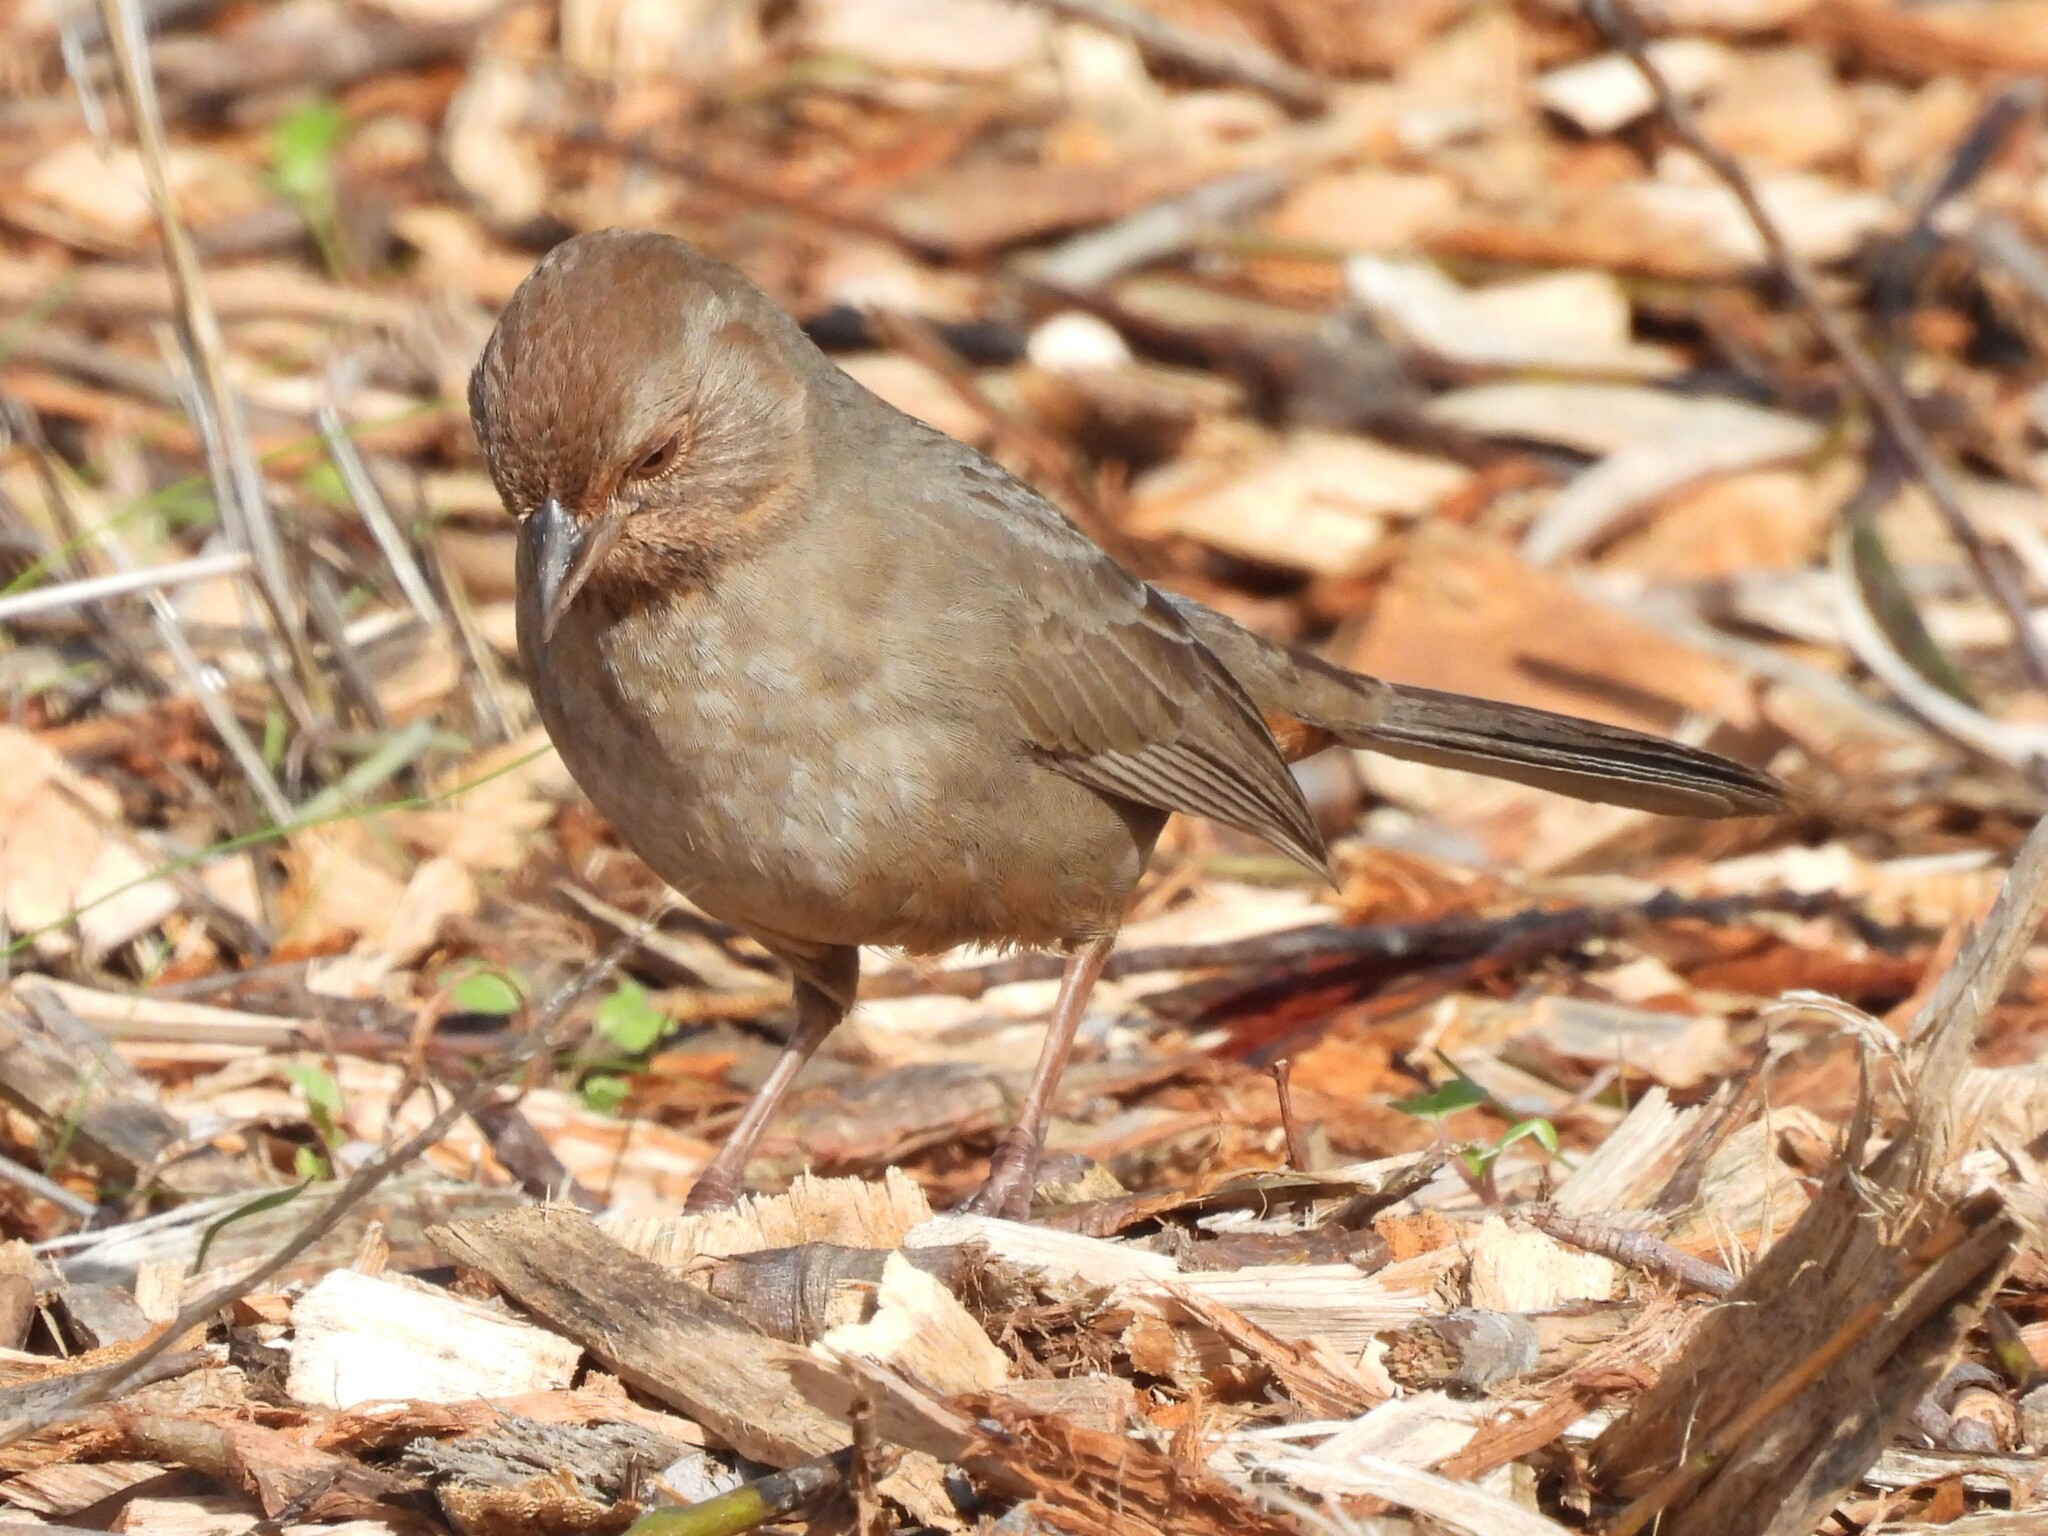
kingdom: Animalia
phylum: Chordata
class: Aves
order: Passeriformes
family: Passerellidae
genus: Melozone
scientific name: Melozone crissalis
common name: California towhee
